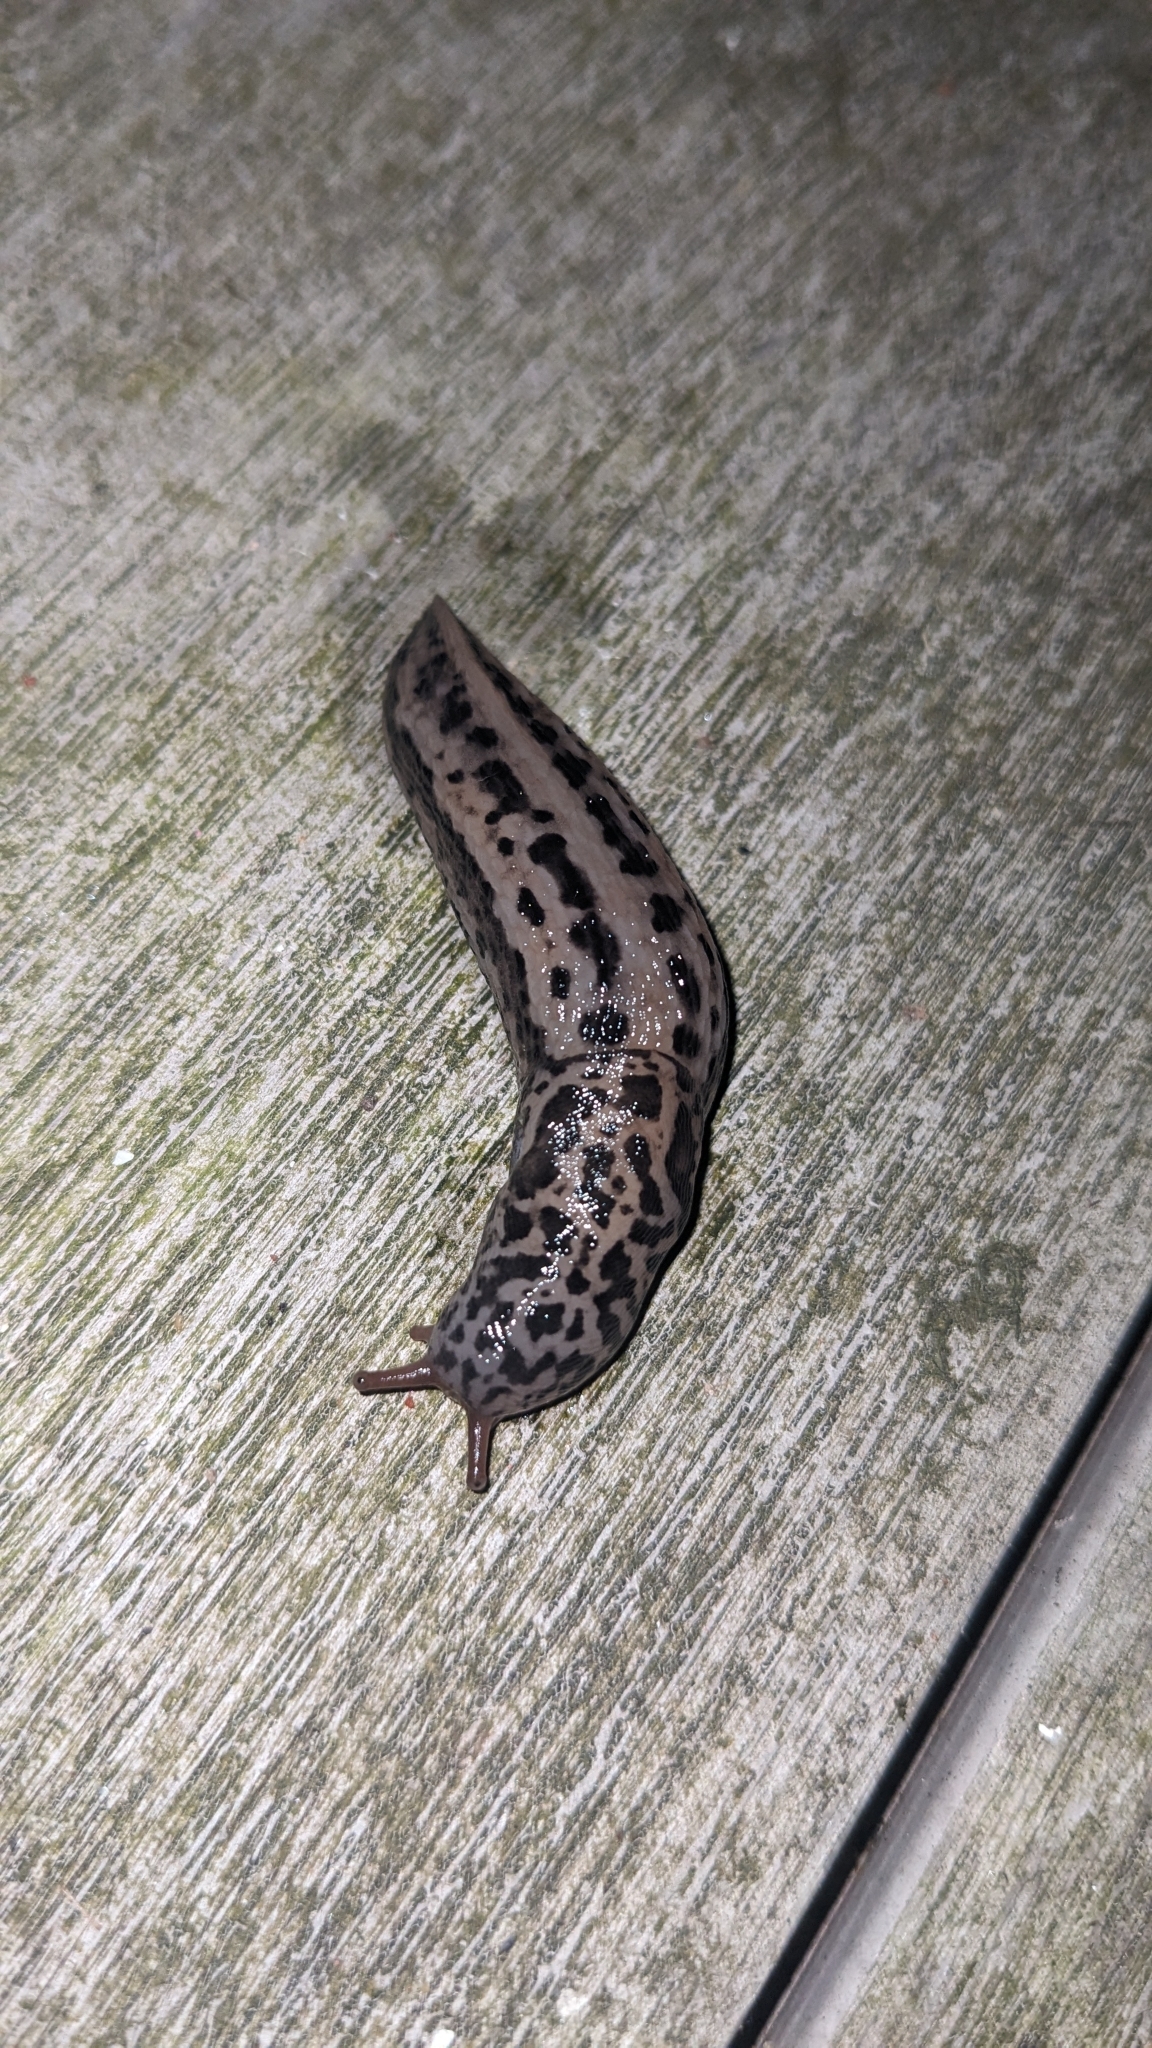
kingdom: Animalia
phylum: Mollusca
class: Gastropoda
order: Stylommatophora
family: Limacidae
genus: Limax
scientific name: Limax maximus
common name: Great grey slug
